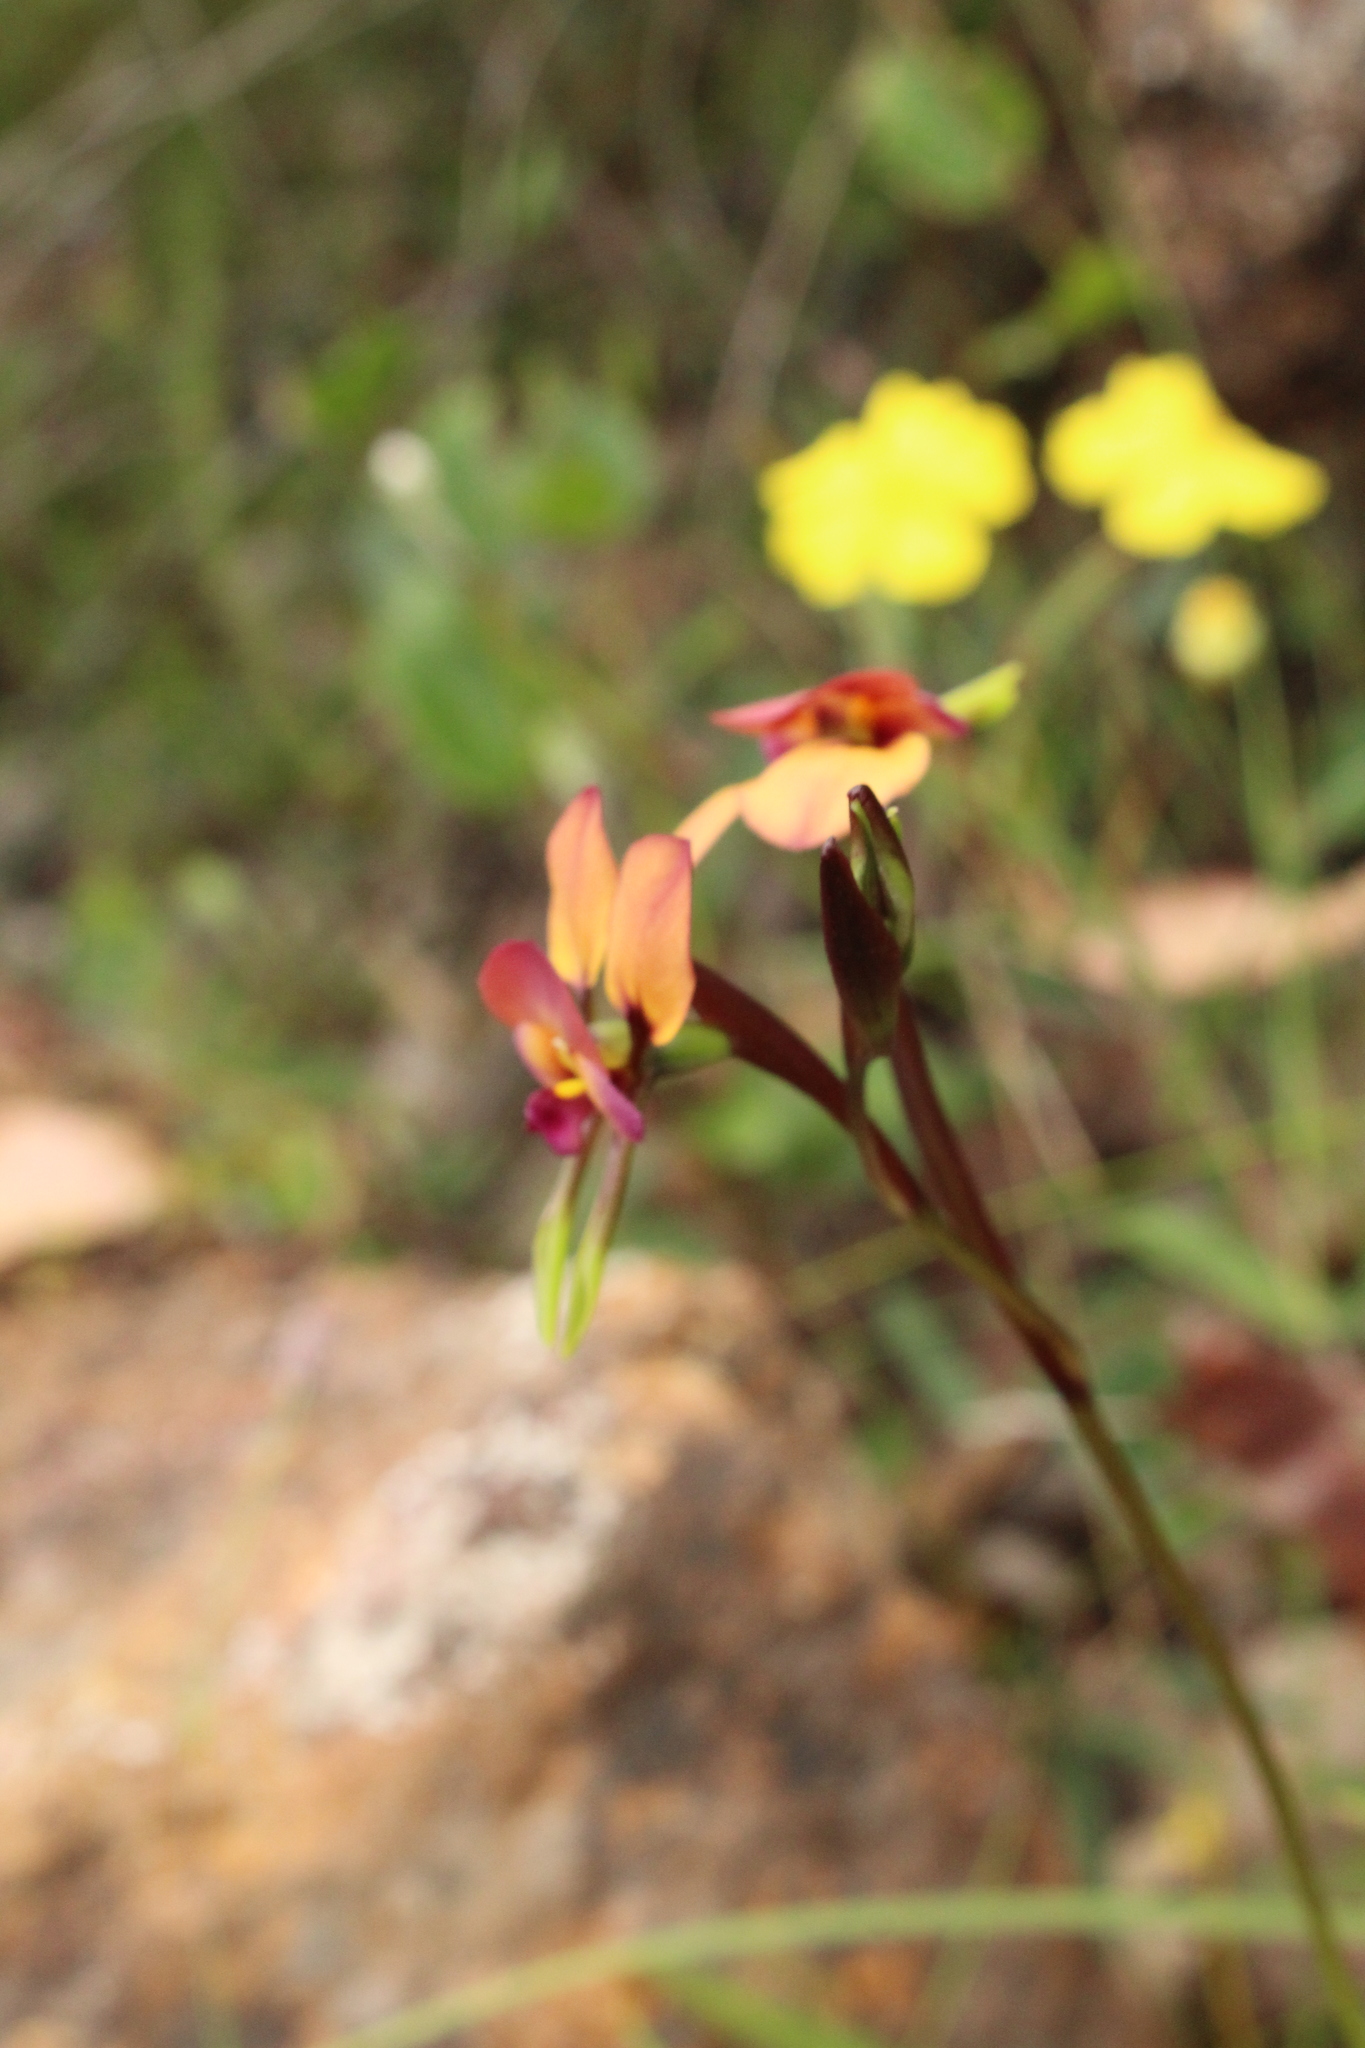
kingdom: Plantae
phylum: Tracheophyta
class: Liliopsida
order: Asparagales
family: Orchidaceae
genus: Diuris
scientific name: Diuris longifolia
